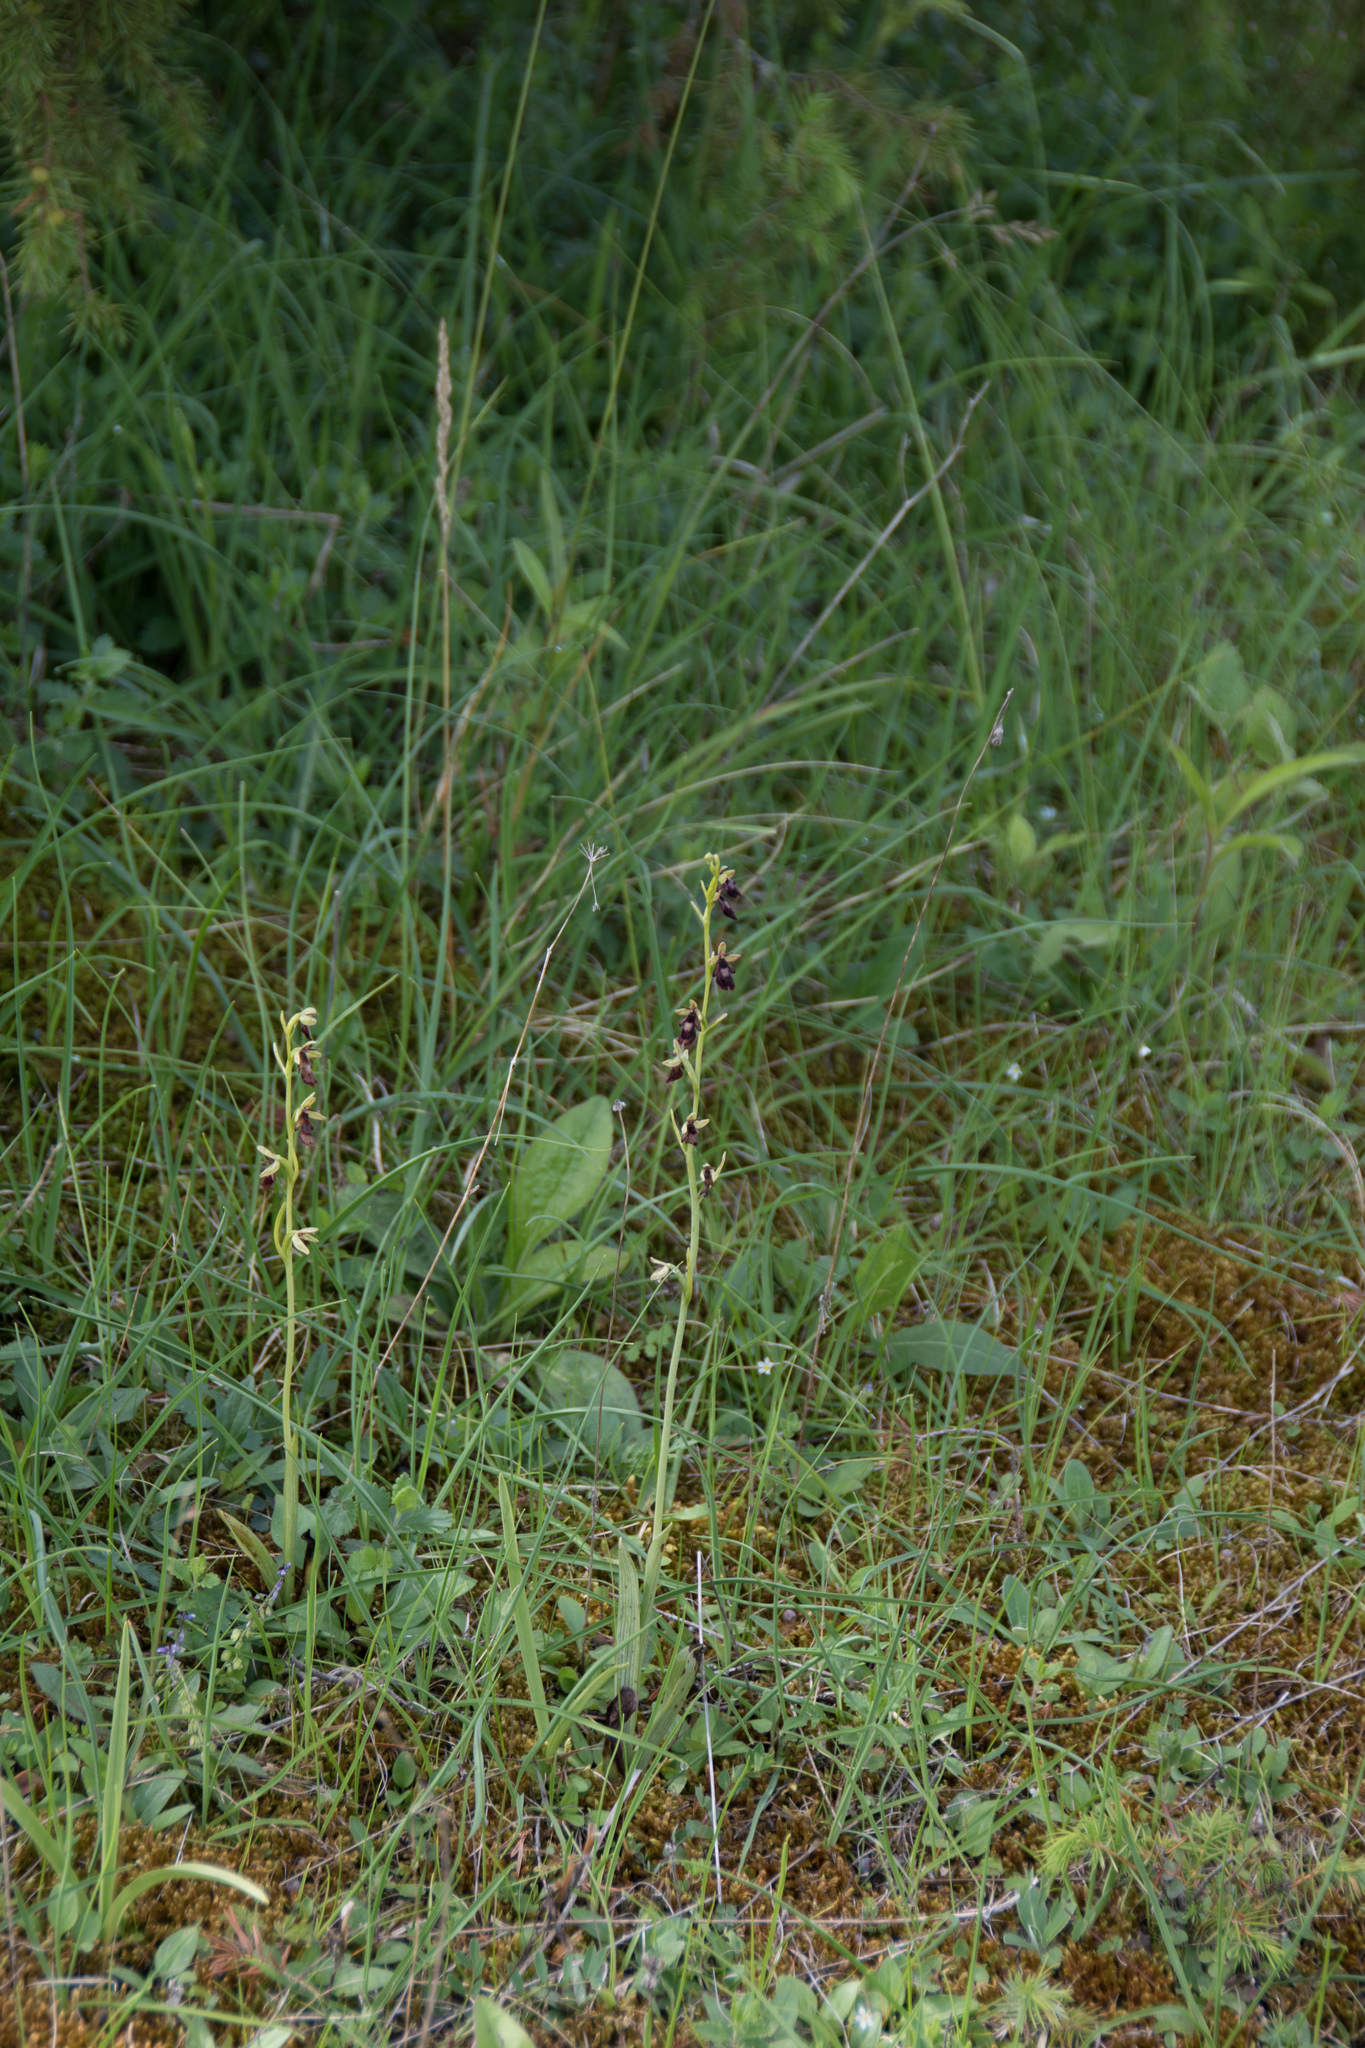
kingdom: Plantae
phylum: Tracheophyta
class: Liliopsida
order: Asparagales
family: Orchidaceae
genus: Ophrys
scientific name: Ophrys insectifera
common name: Fly orchid
